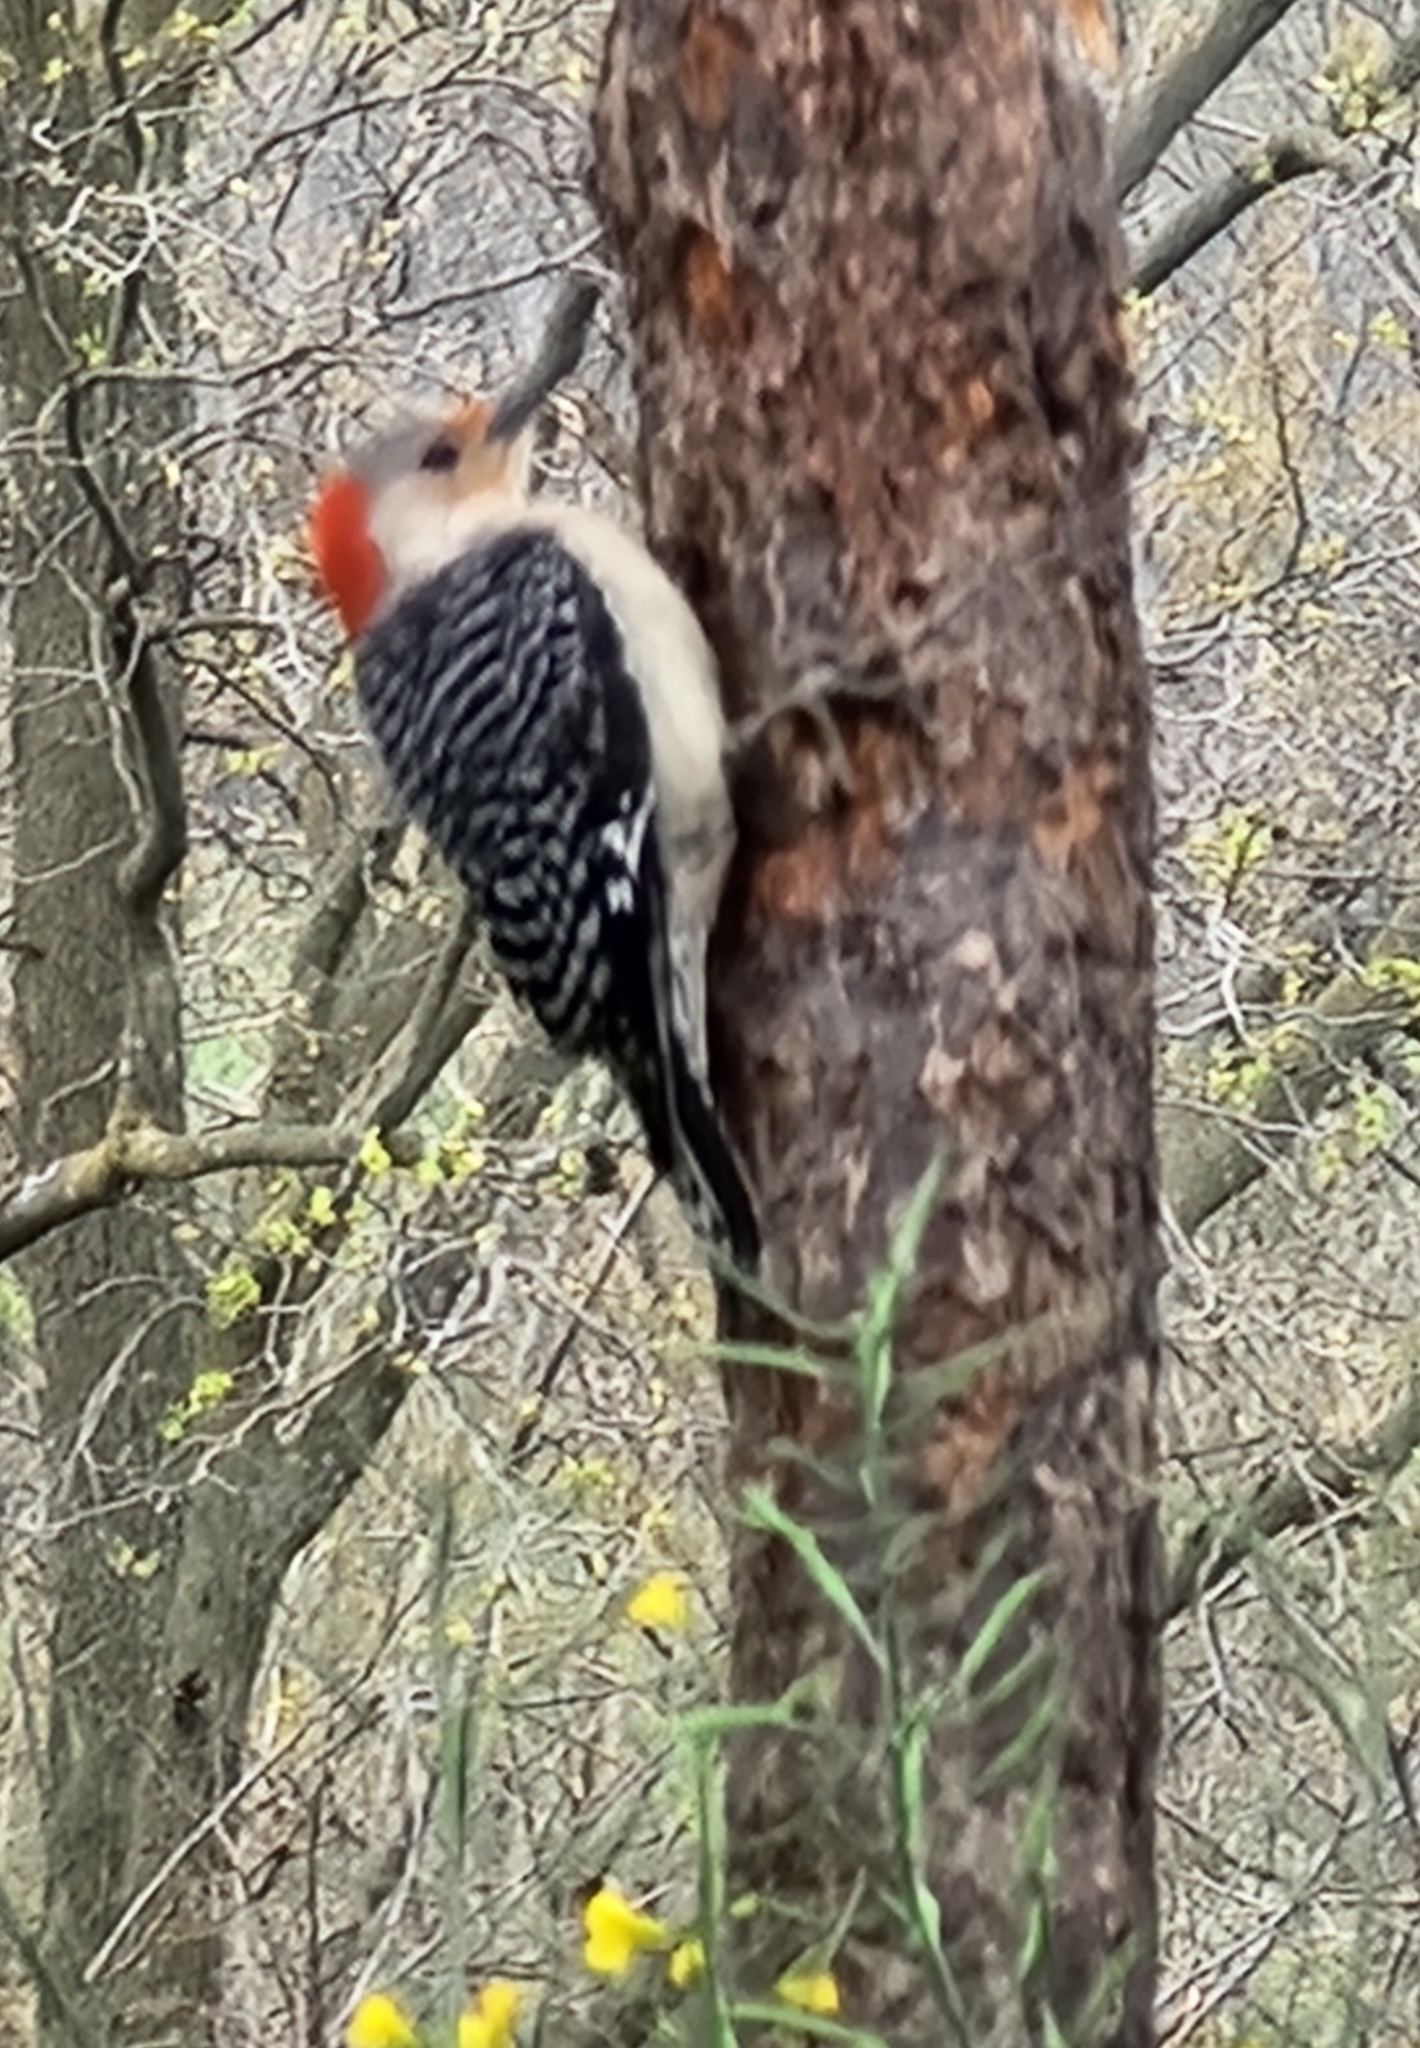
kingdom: Animalia
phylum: Chordata
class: Aves
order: Piciformes
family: Picidae
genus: Melanerpes
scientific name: Melanerpes carolinus
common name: Red-bellied woodpecker
